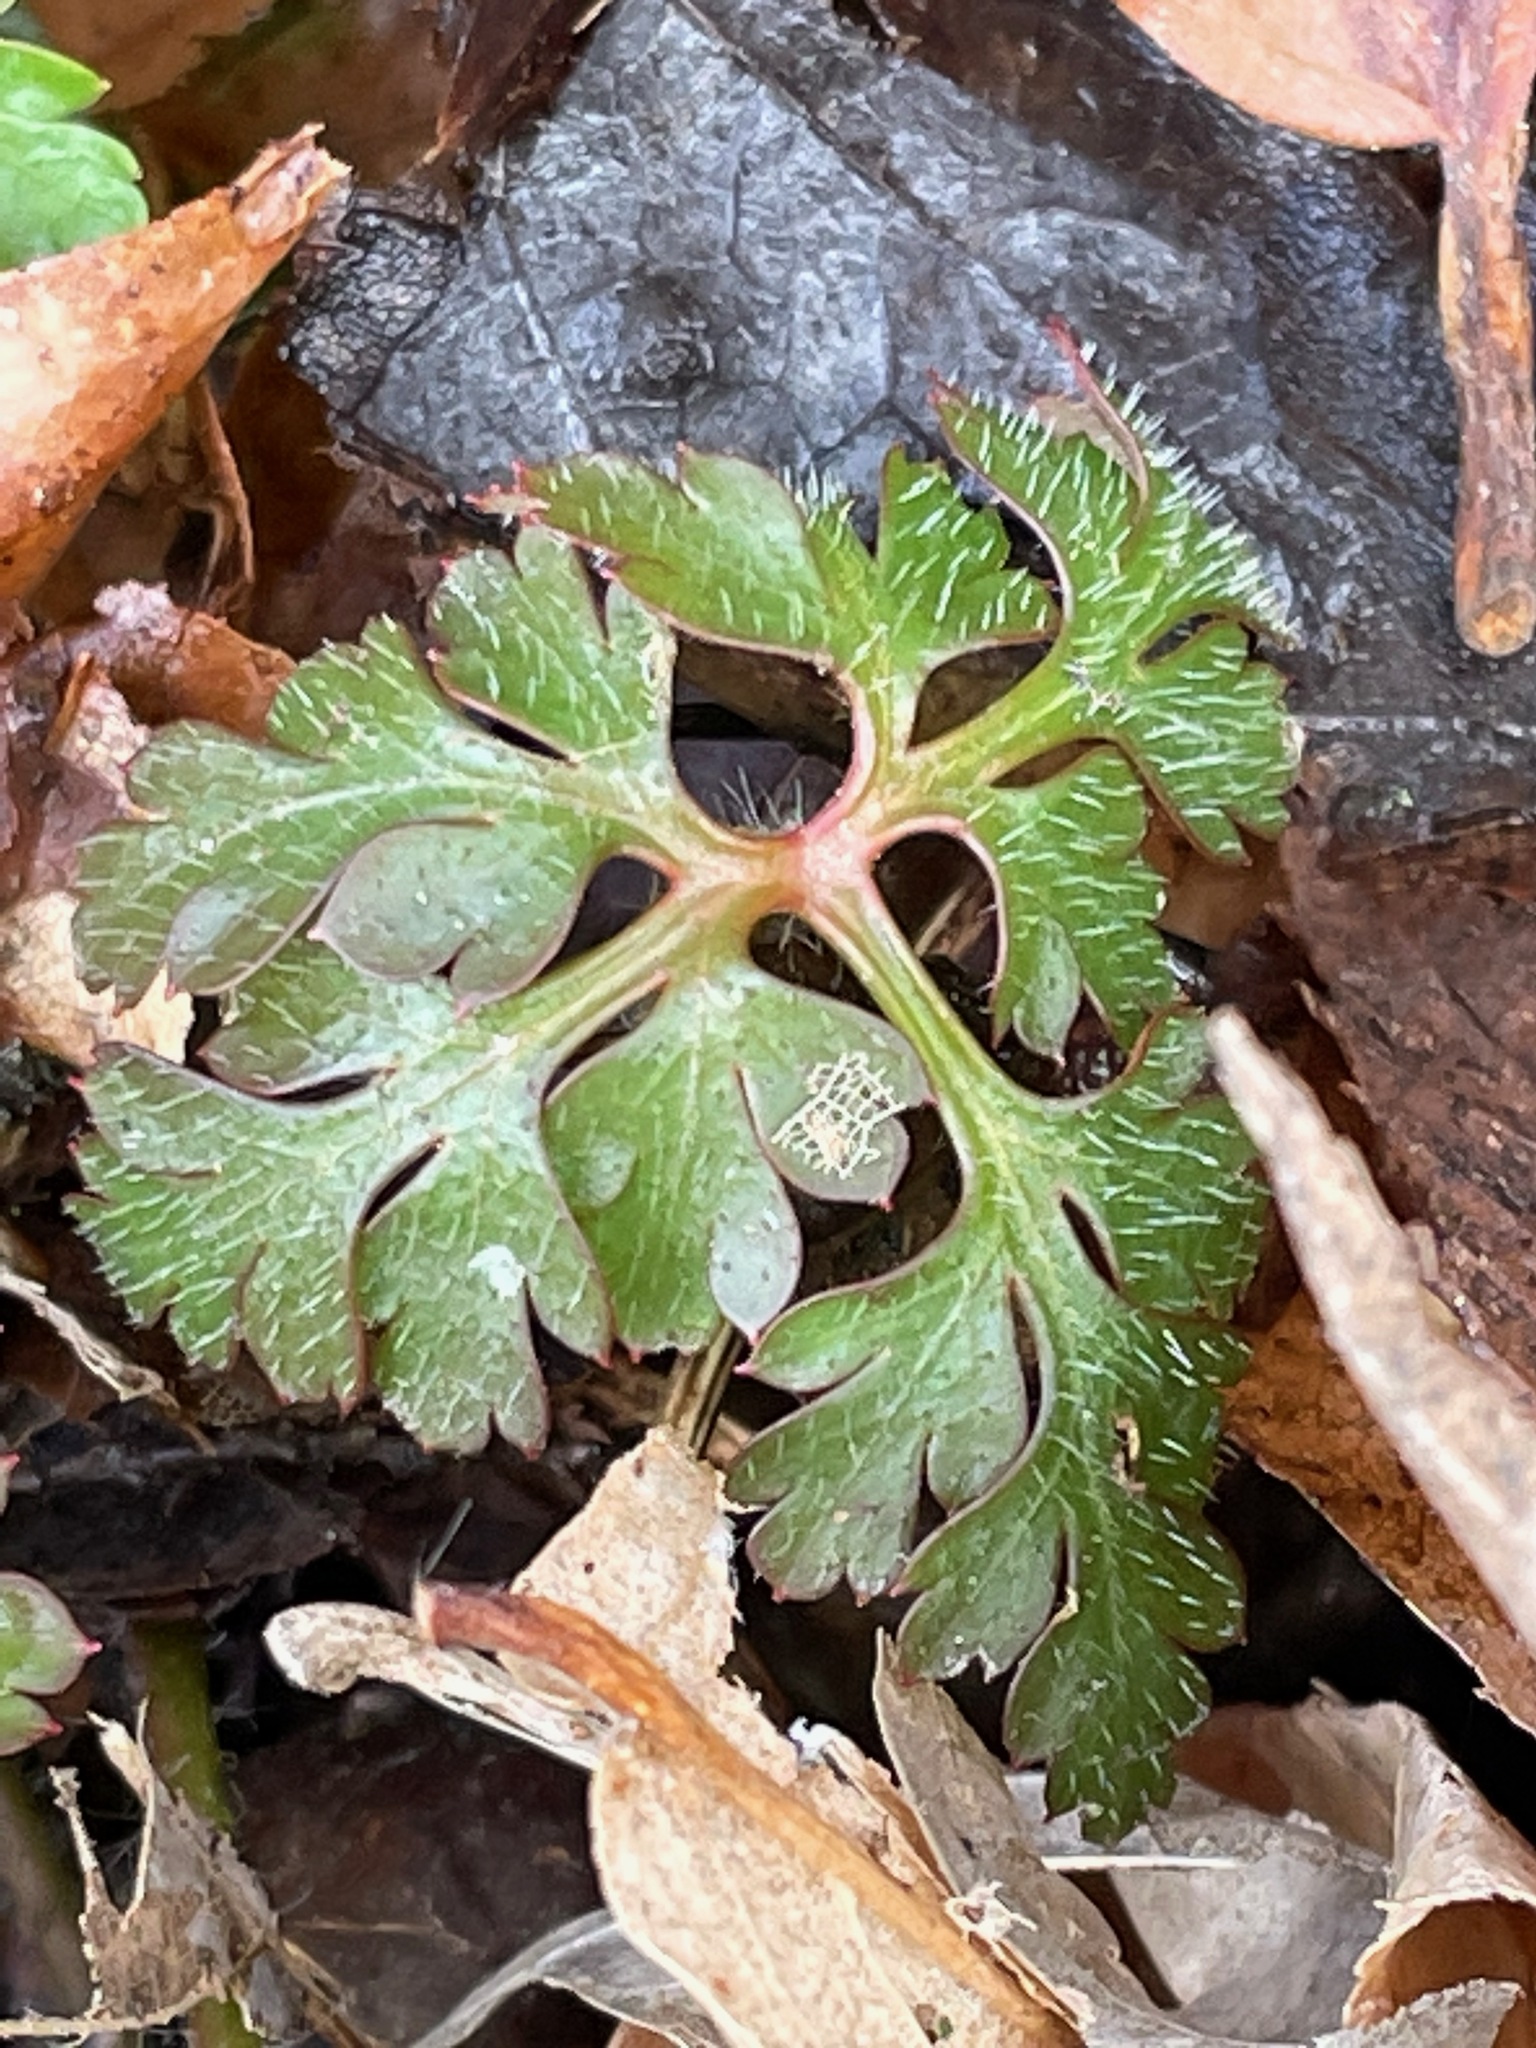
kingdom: Plantae
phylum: Tracheophyta
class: Magnoliopsida
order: Geraniales
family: Geraniaceae
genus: Geranium
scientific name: Geranium robertianum
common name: Herb-robert
